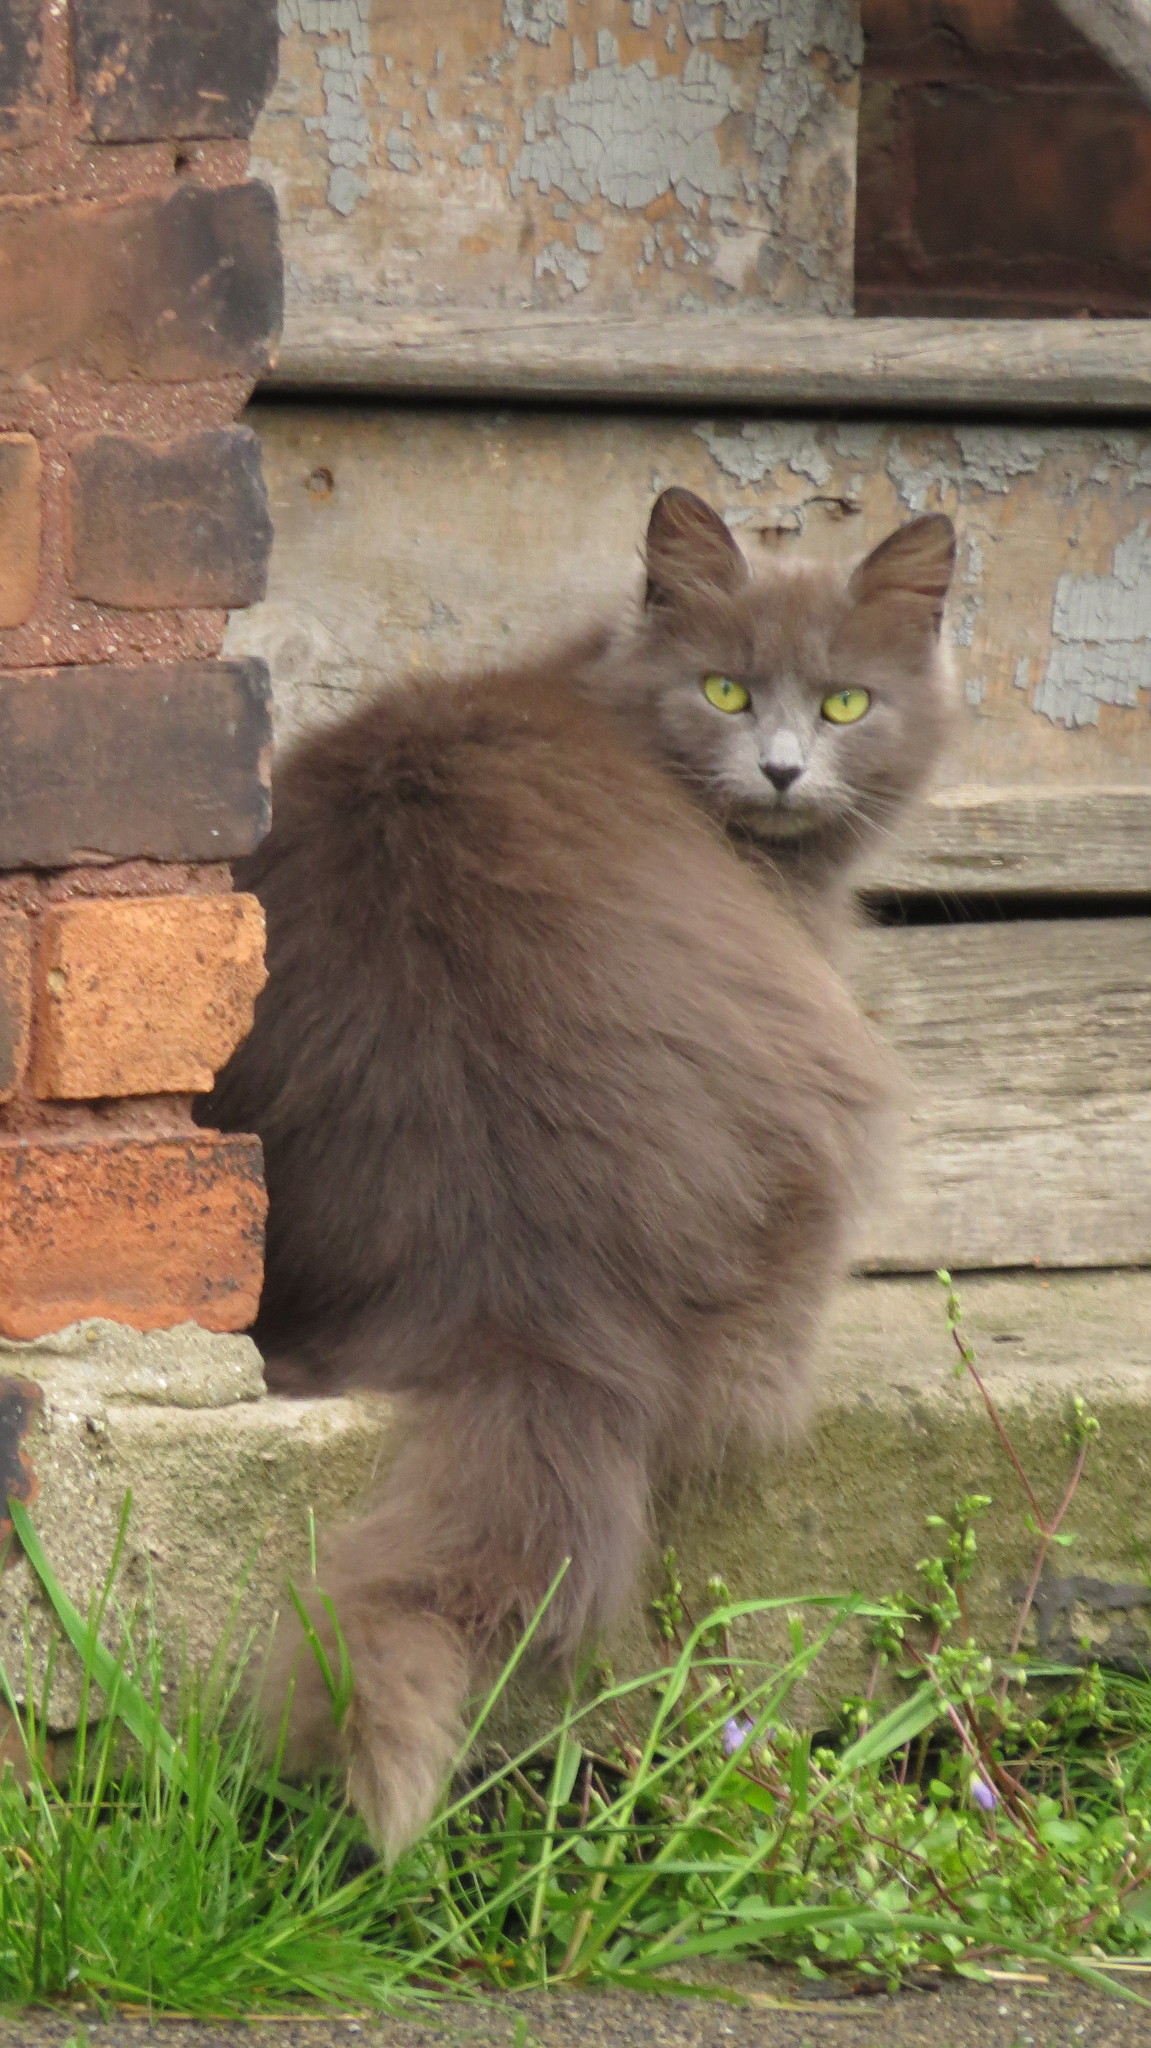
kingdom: Animalia
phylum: Chordata
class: Mammalia
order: Carnivora
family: Felidae
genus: Felis
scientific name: Felis catus
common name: Domestic cat
